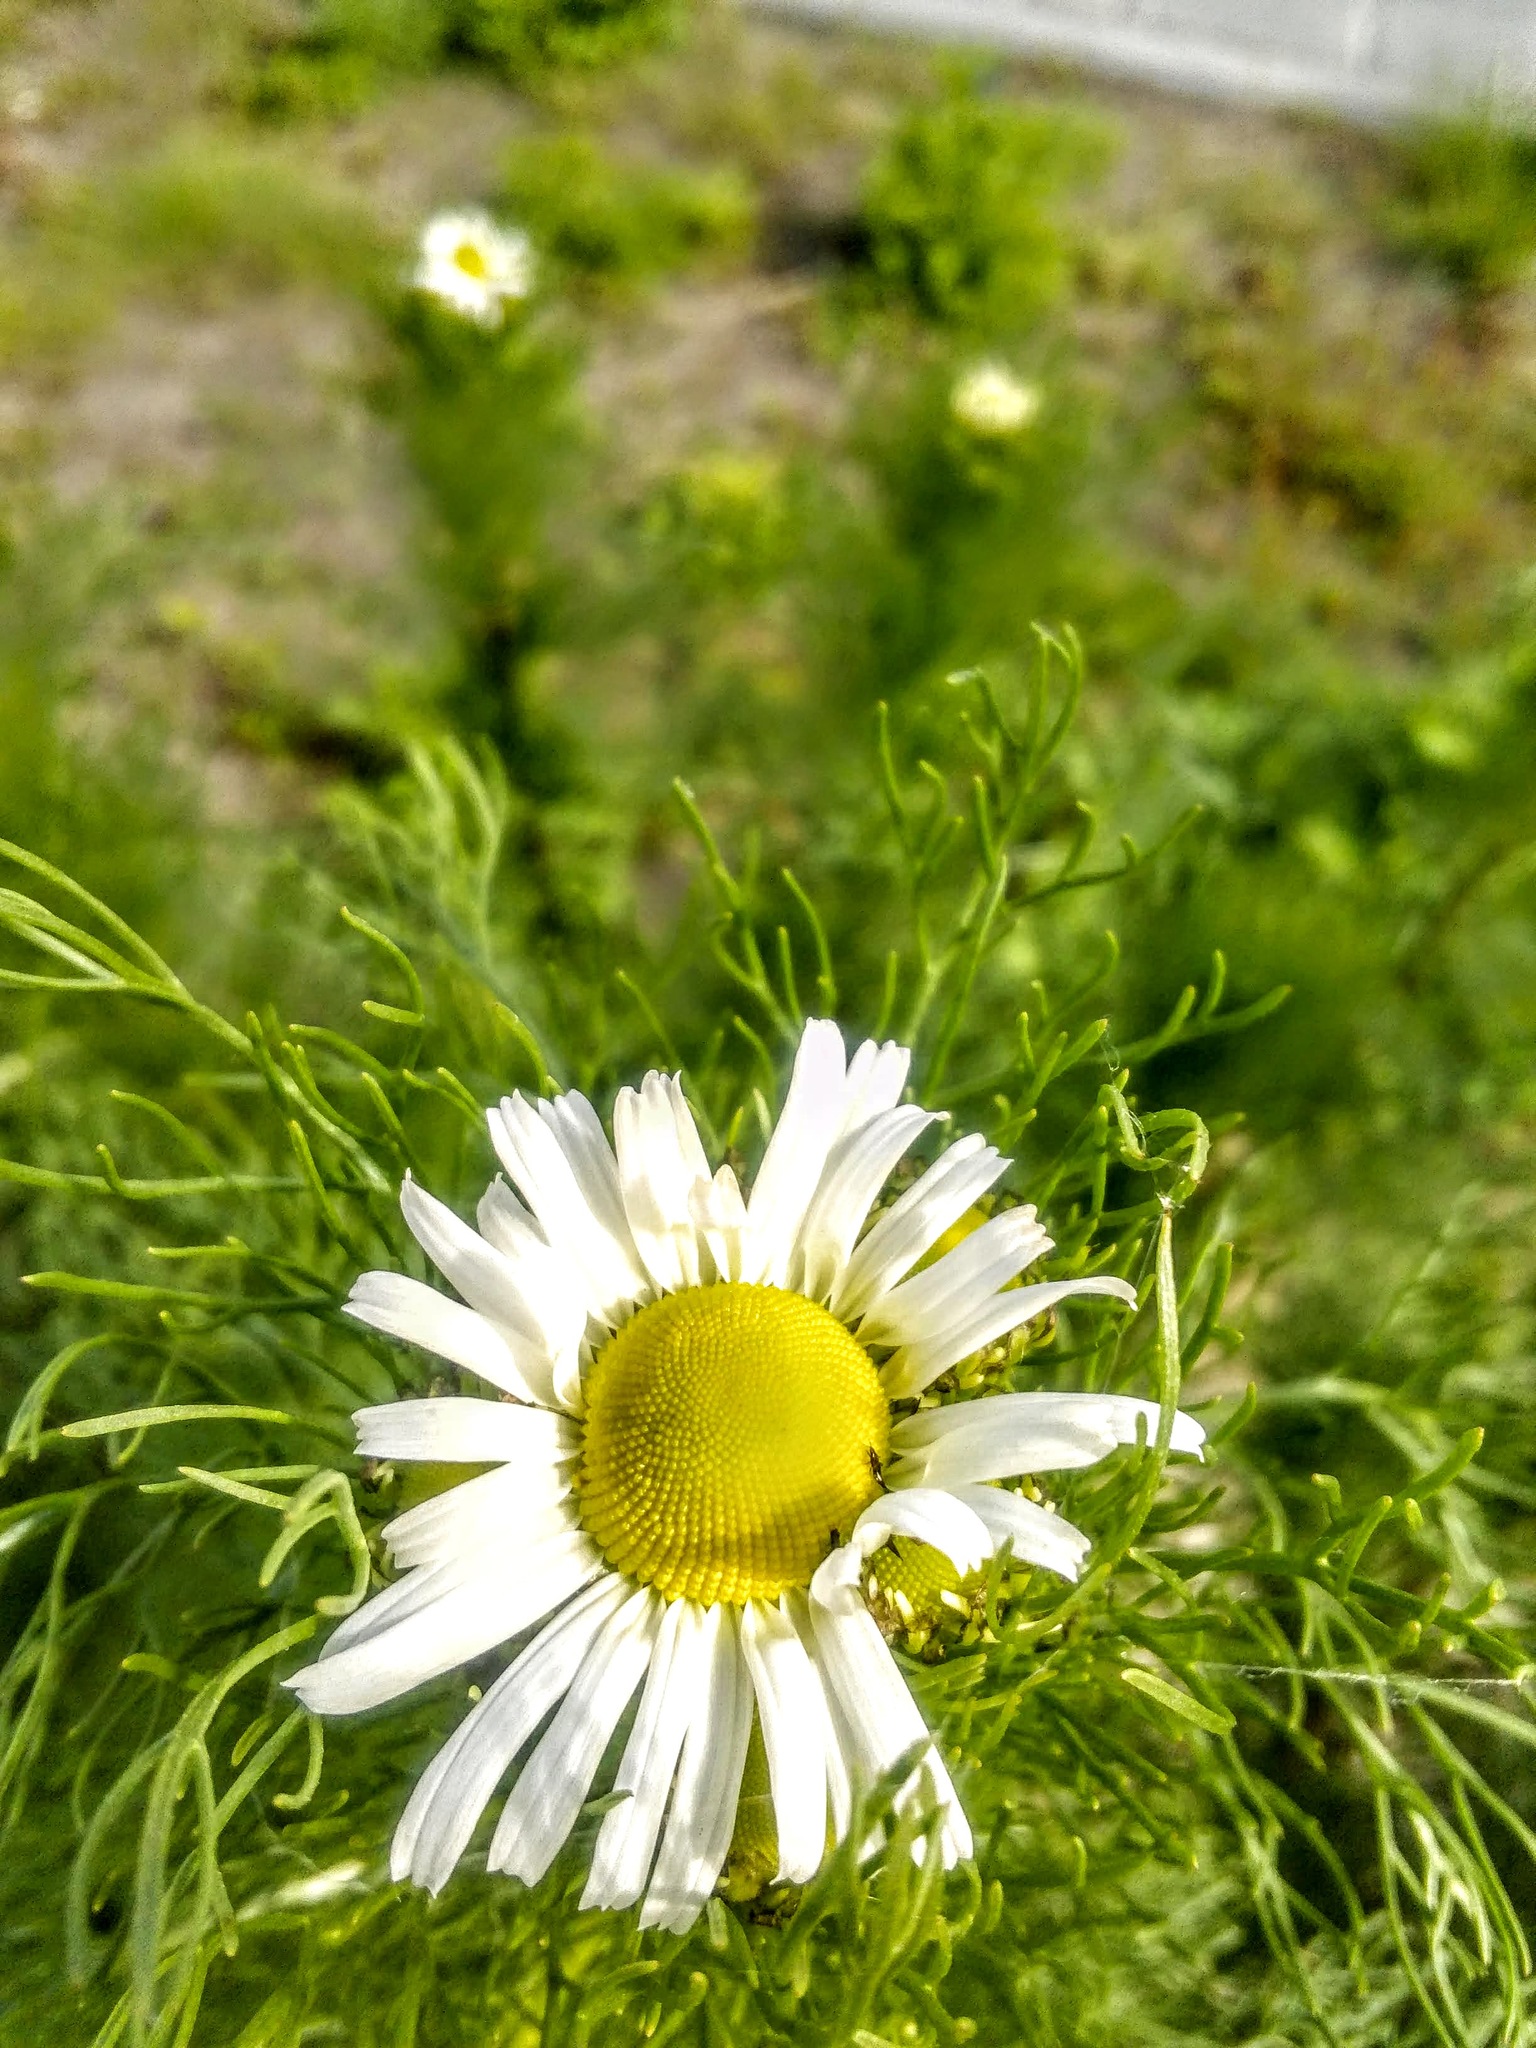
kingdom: Plantae
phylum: Tracheophyta
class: Magnoliopsida
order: Asterales
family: Asteraceae
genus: Tripleurospermum
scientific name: Tripleurospermum inodorum
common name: Scentless mayweed
